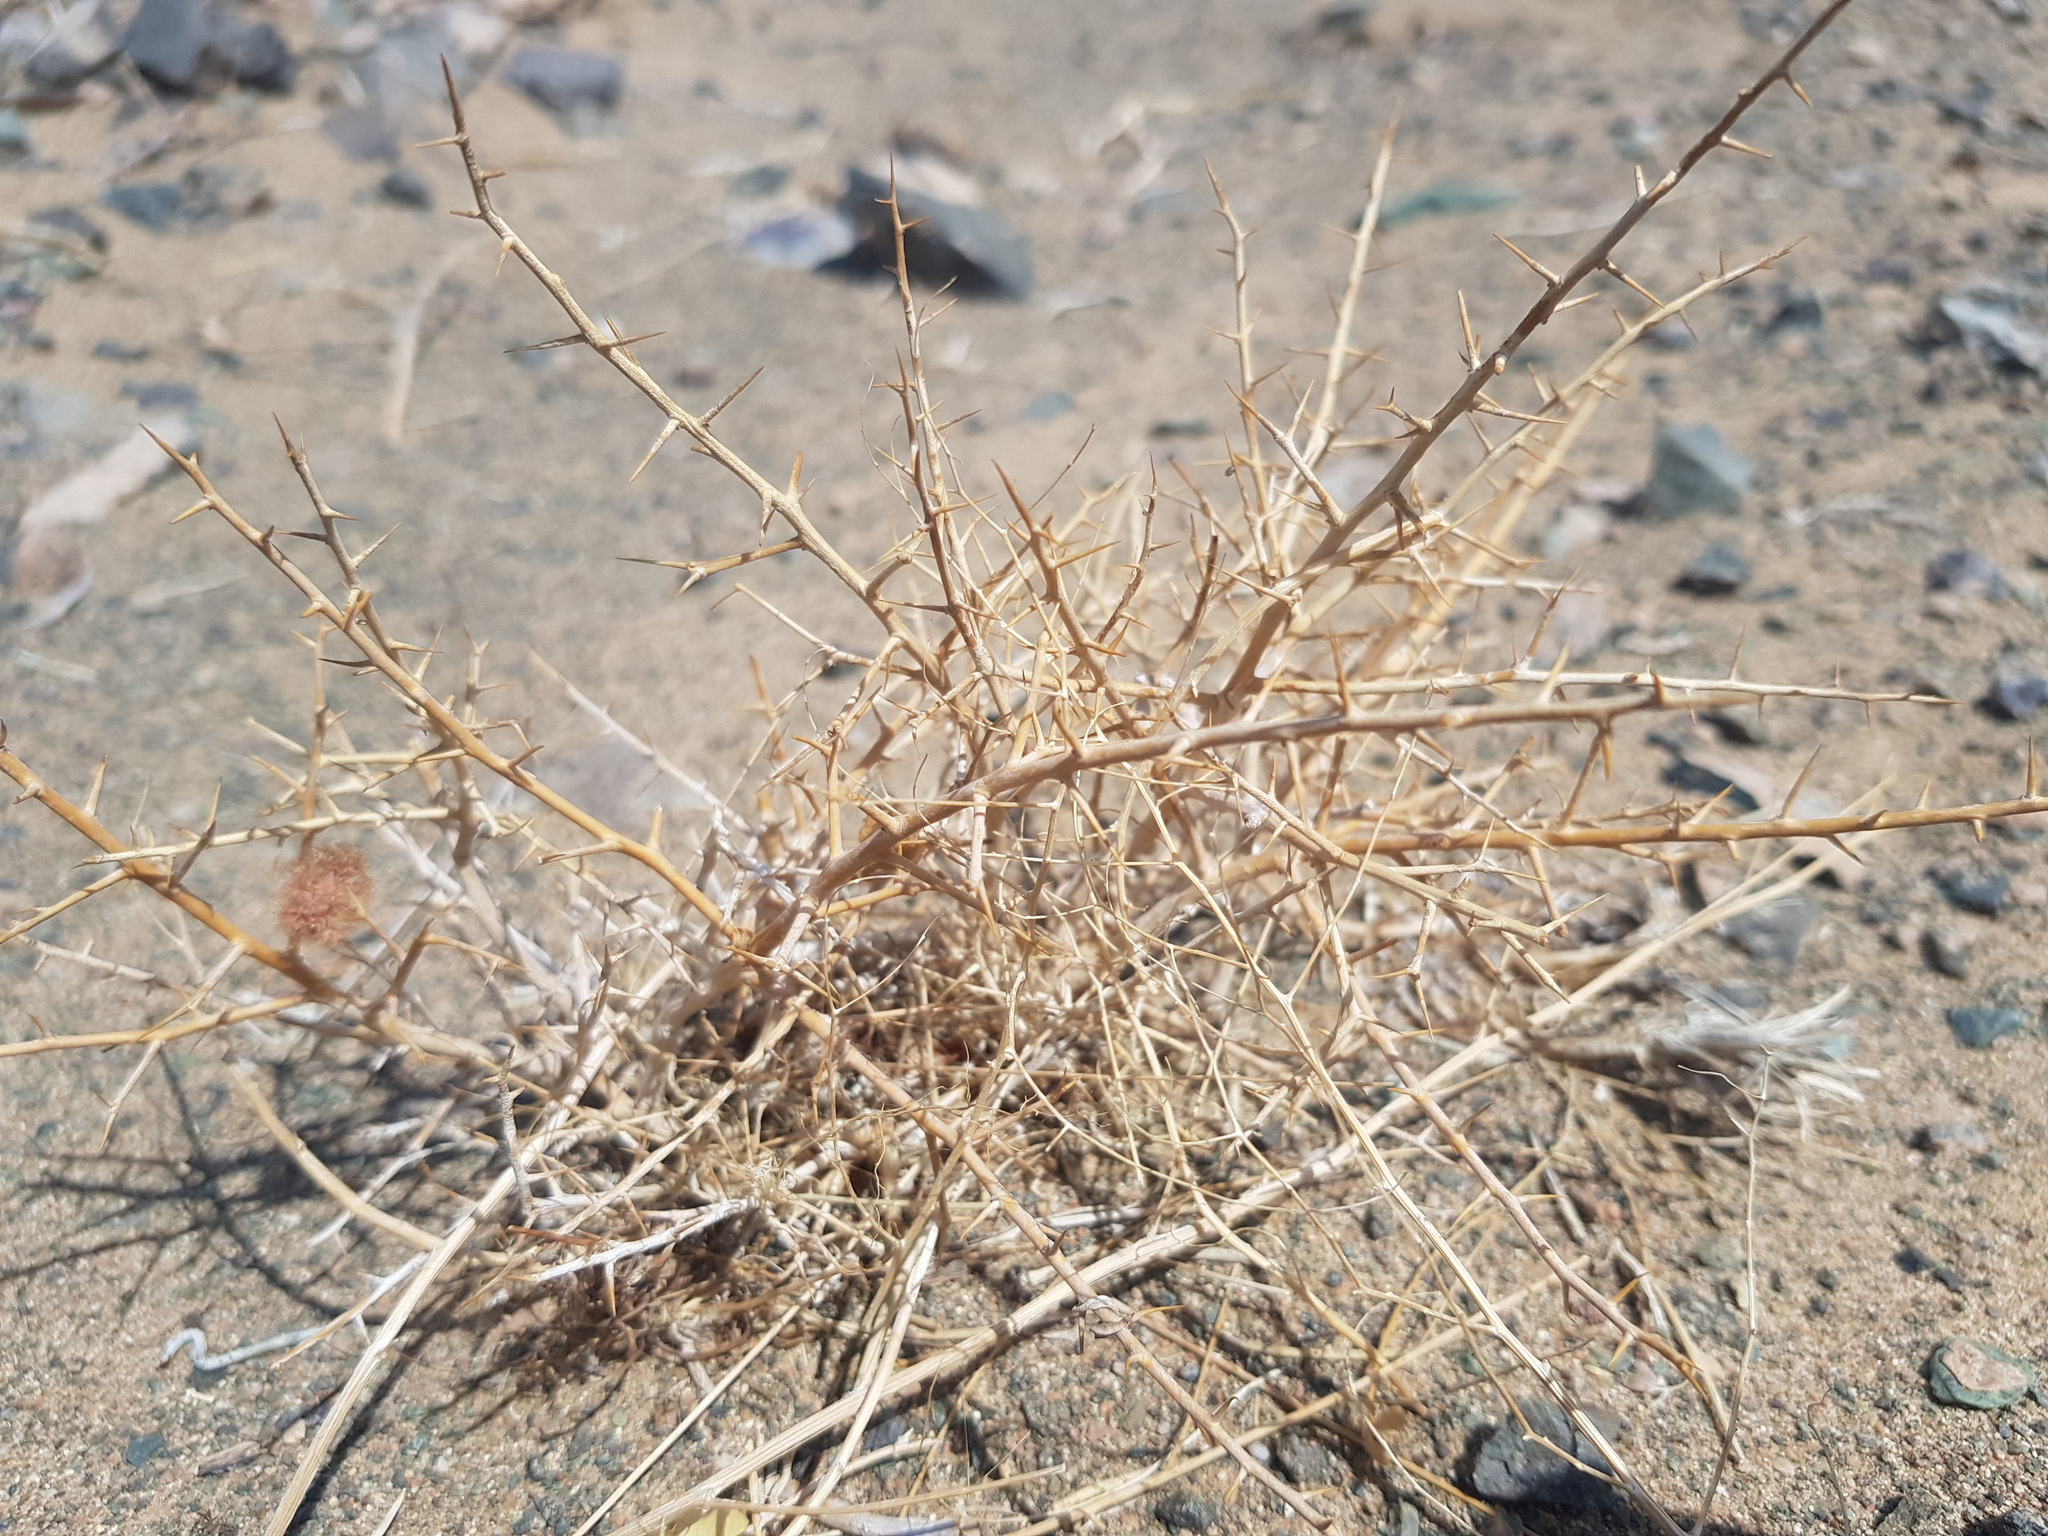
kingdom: Plantae
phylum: Tracheophyta
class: Magnoliopsida
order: Solanales
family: Convolvulaceae
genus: Convolvulus
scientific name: Convolvulus gortschakovii
